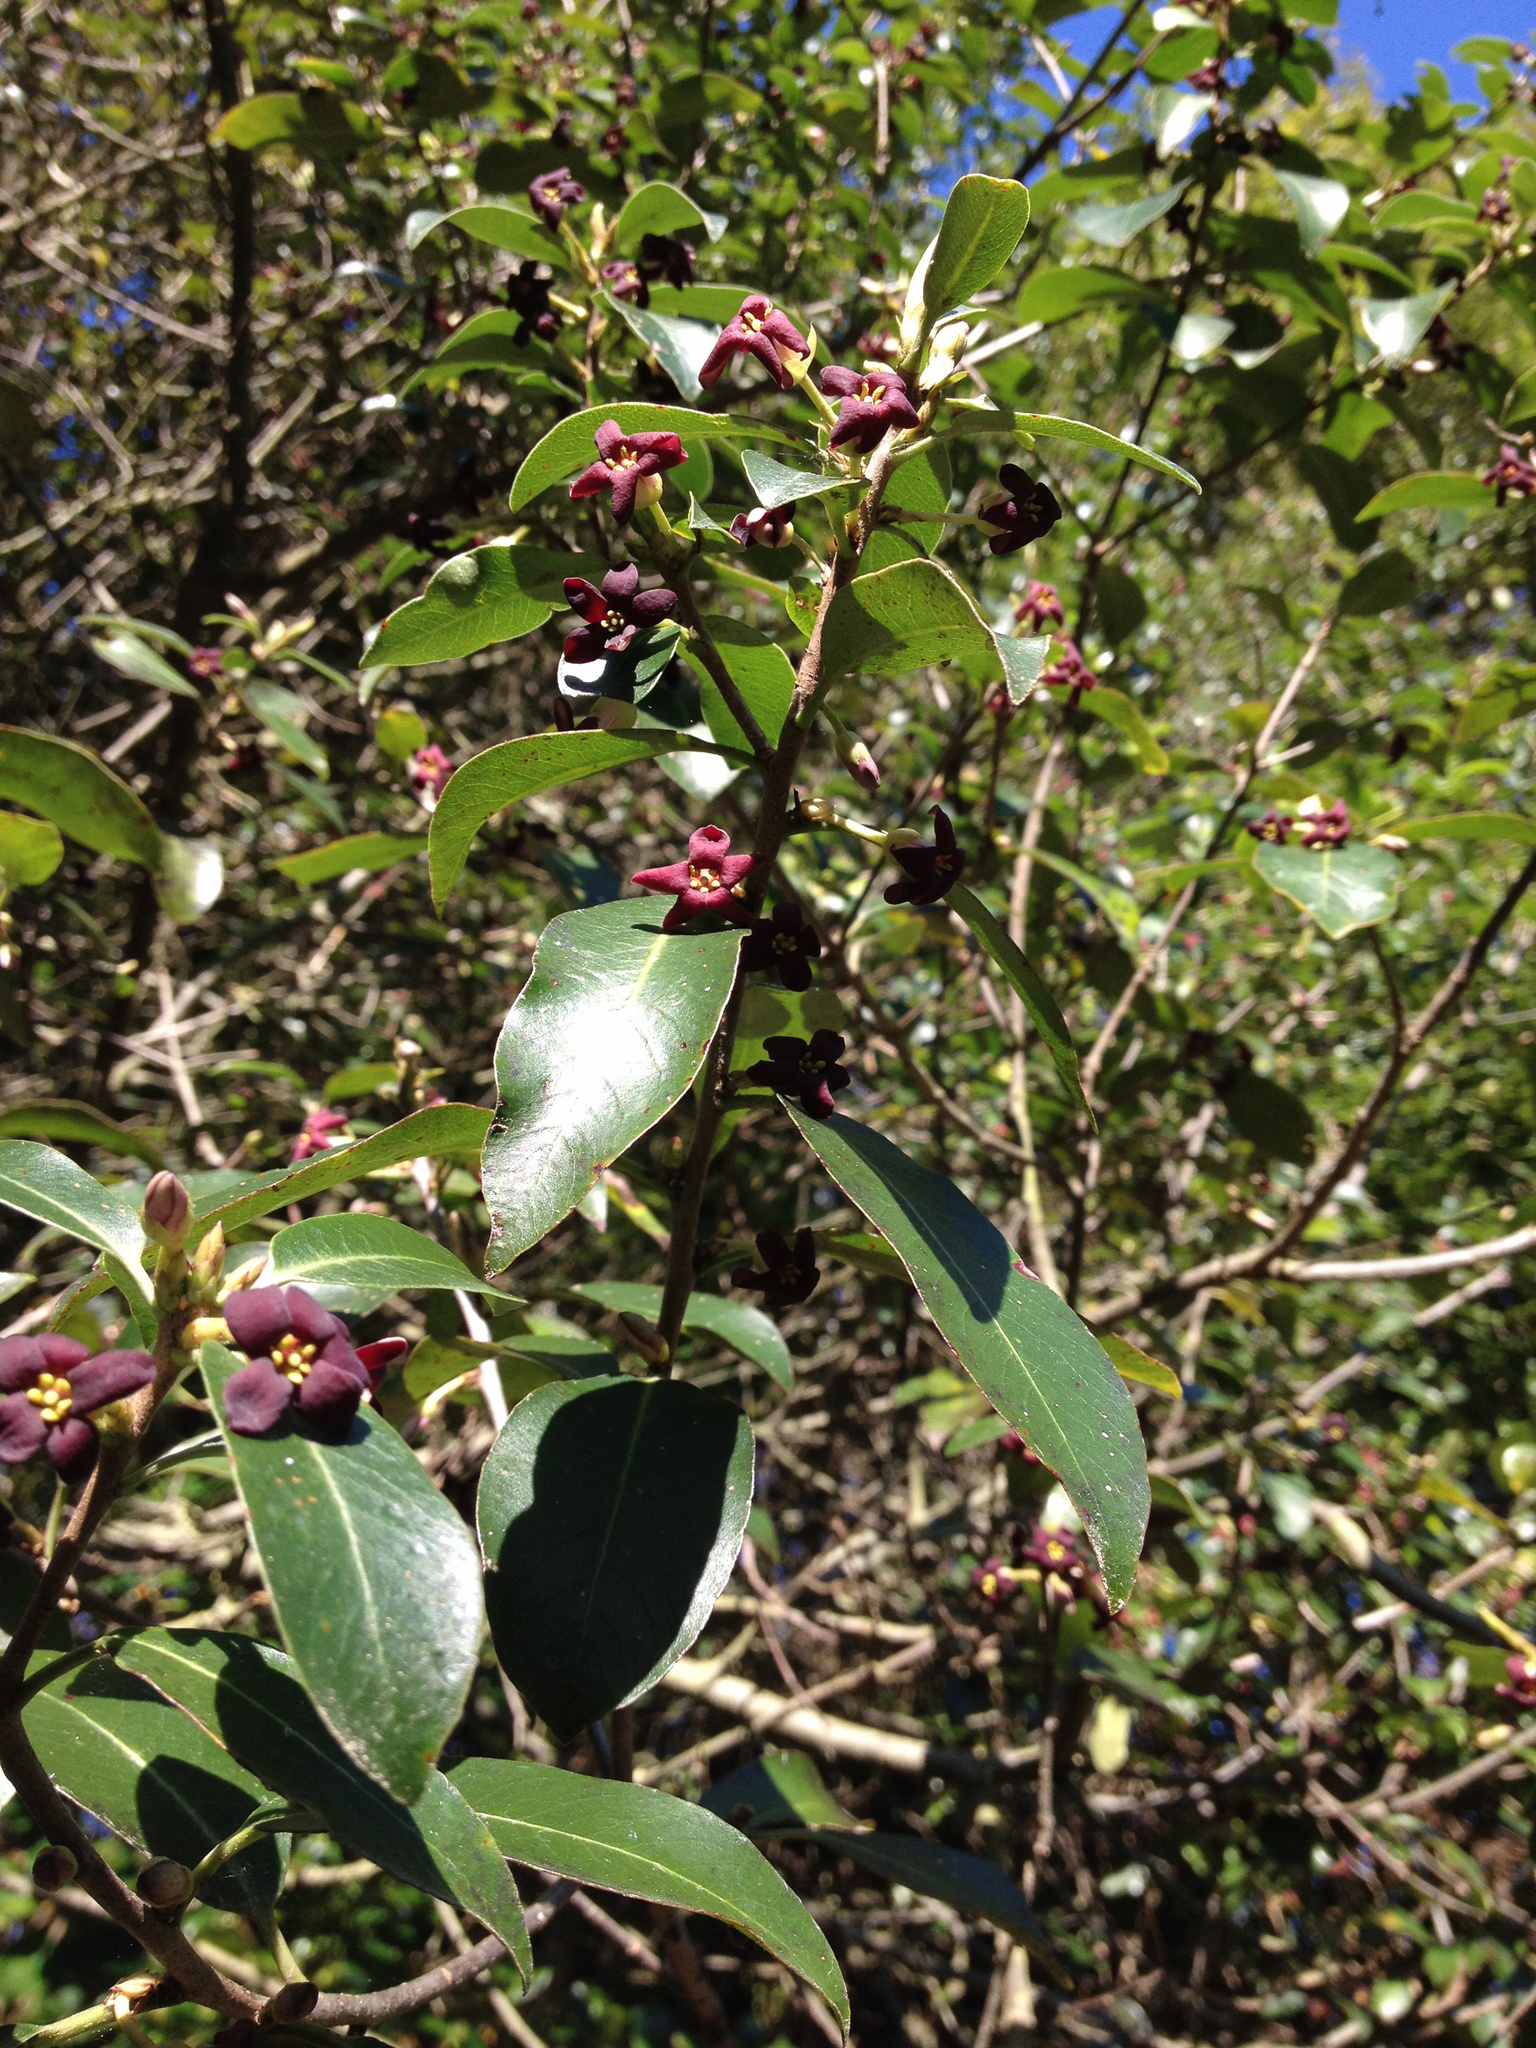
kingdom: Plantae
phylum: Tracheophyta
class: Magnoliopsida
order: Apiales
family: Pittosporaceae
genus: Pittosporum
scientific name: Pittosporum tenuifolium
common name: Kohuhu
